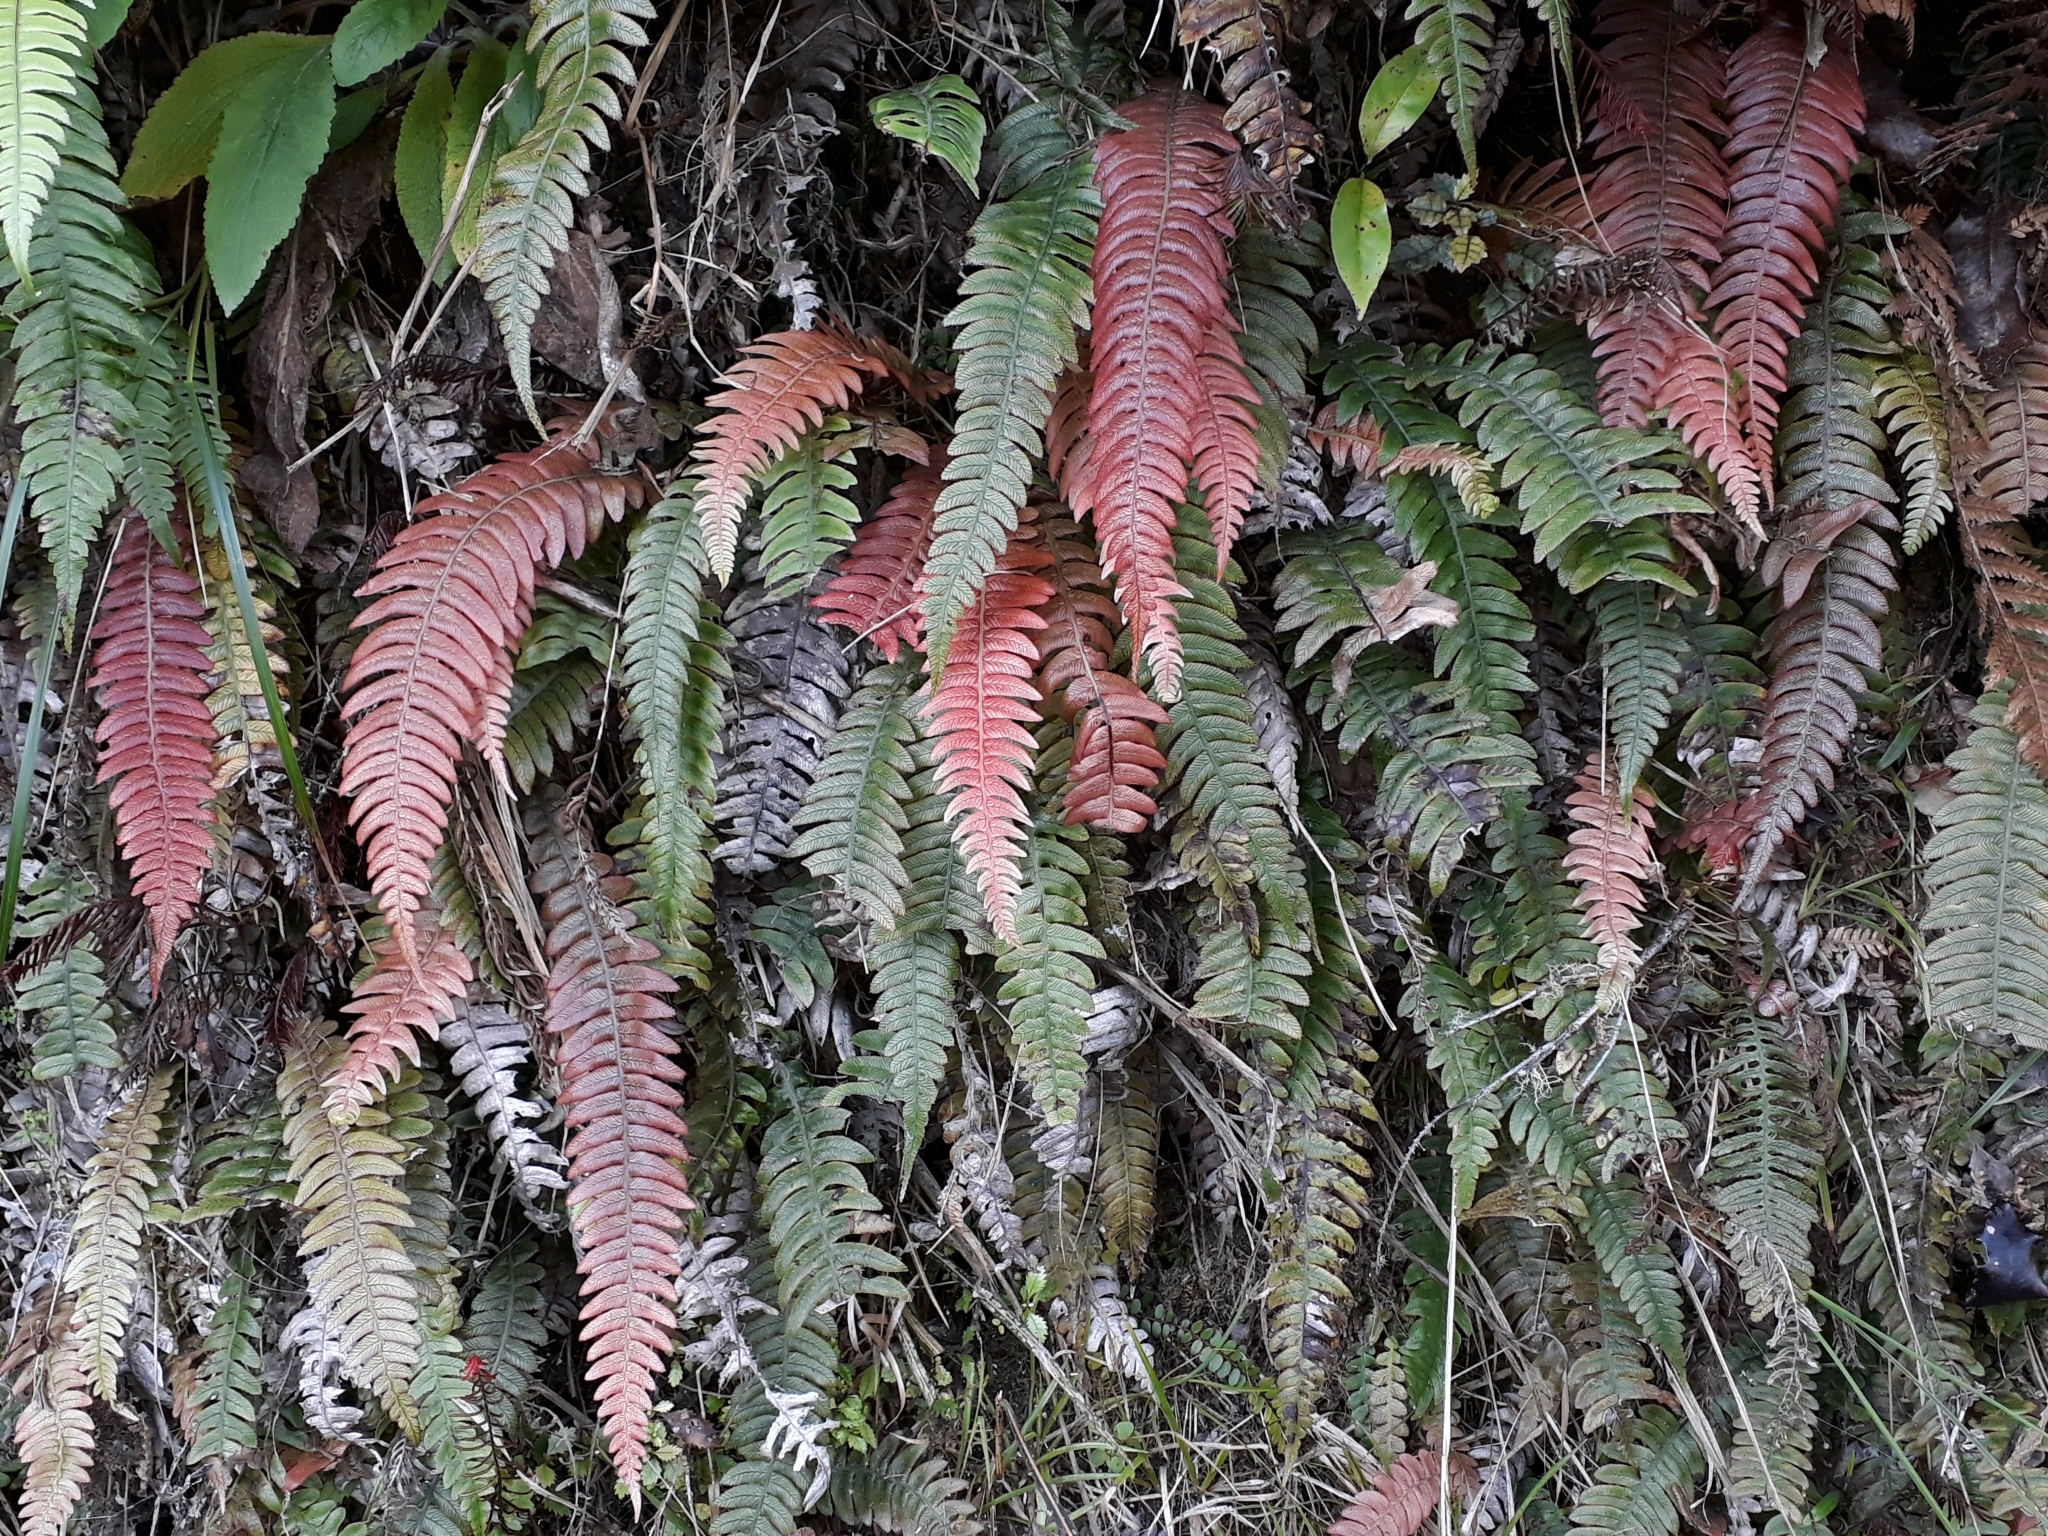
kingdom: Plantae
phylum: Tracheophyta
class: Polypodiopsida
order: Polypodiales
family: Blechnaceae
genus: Austroblechnum
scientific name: Austroblechnum lanceolatum
